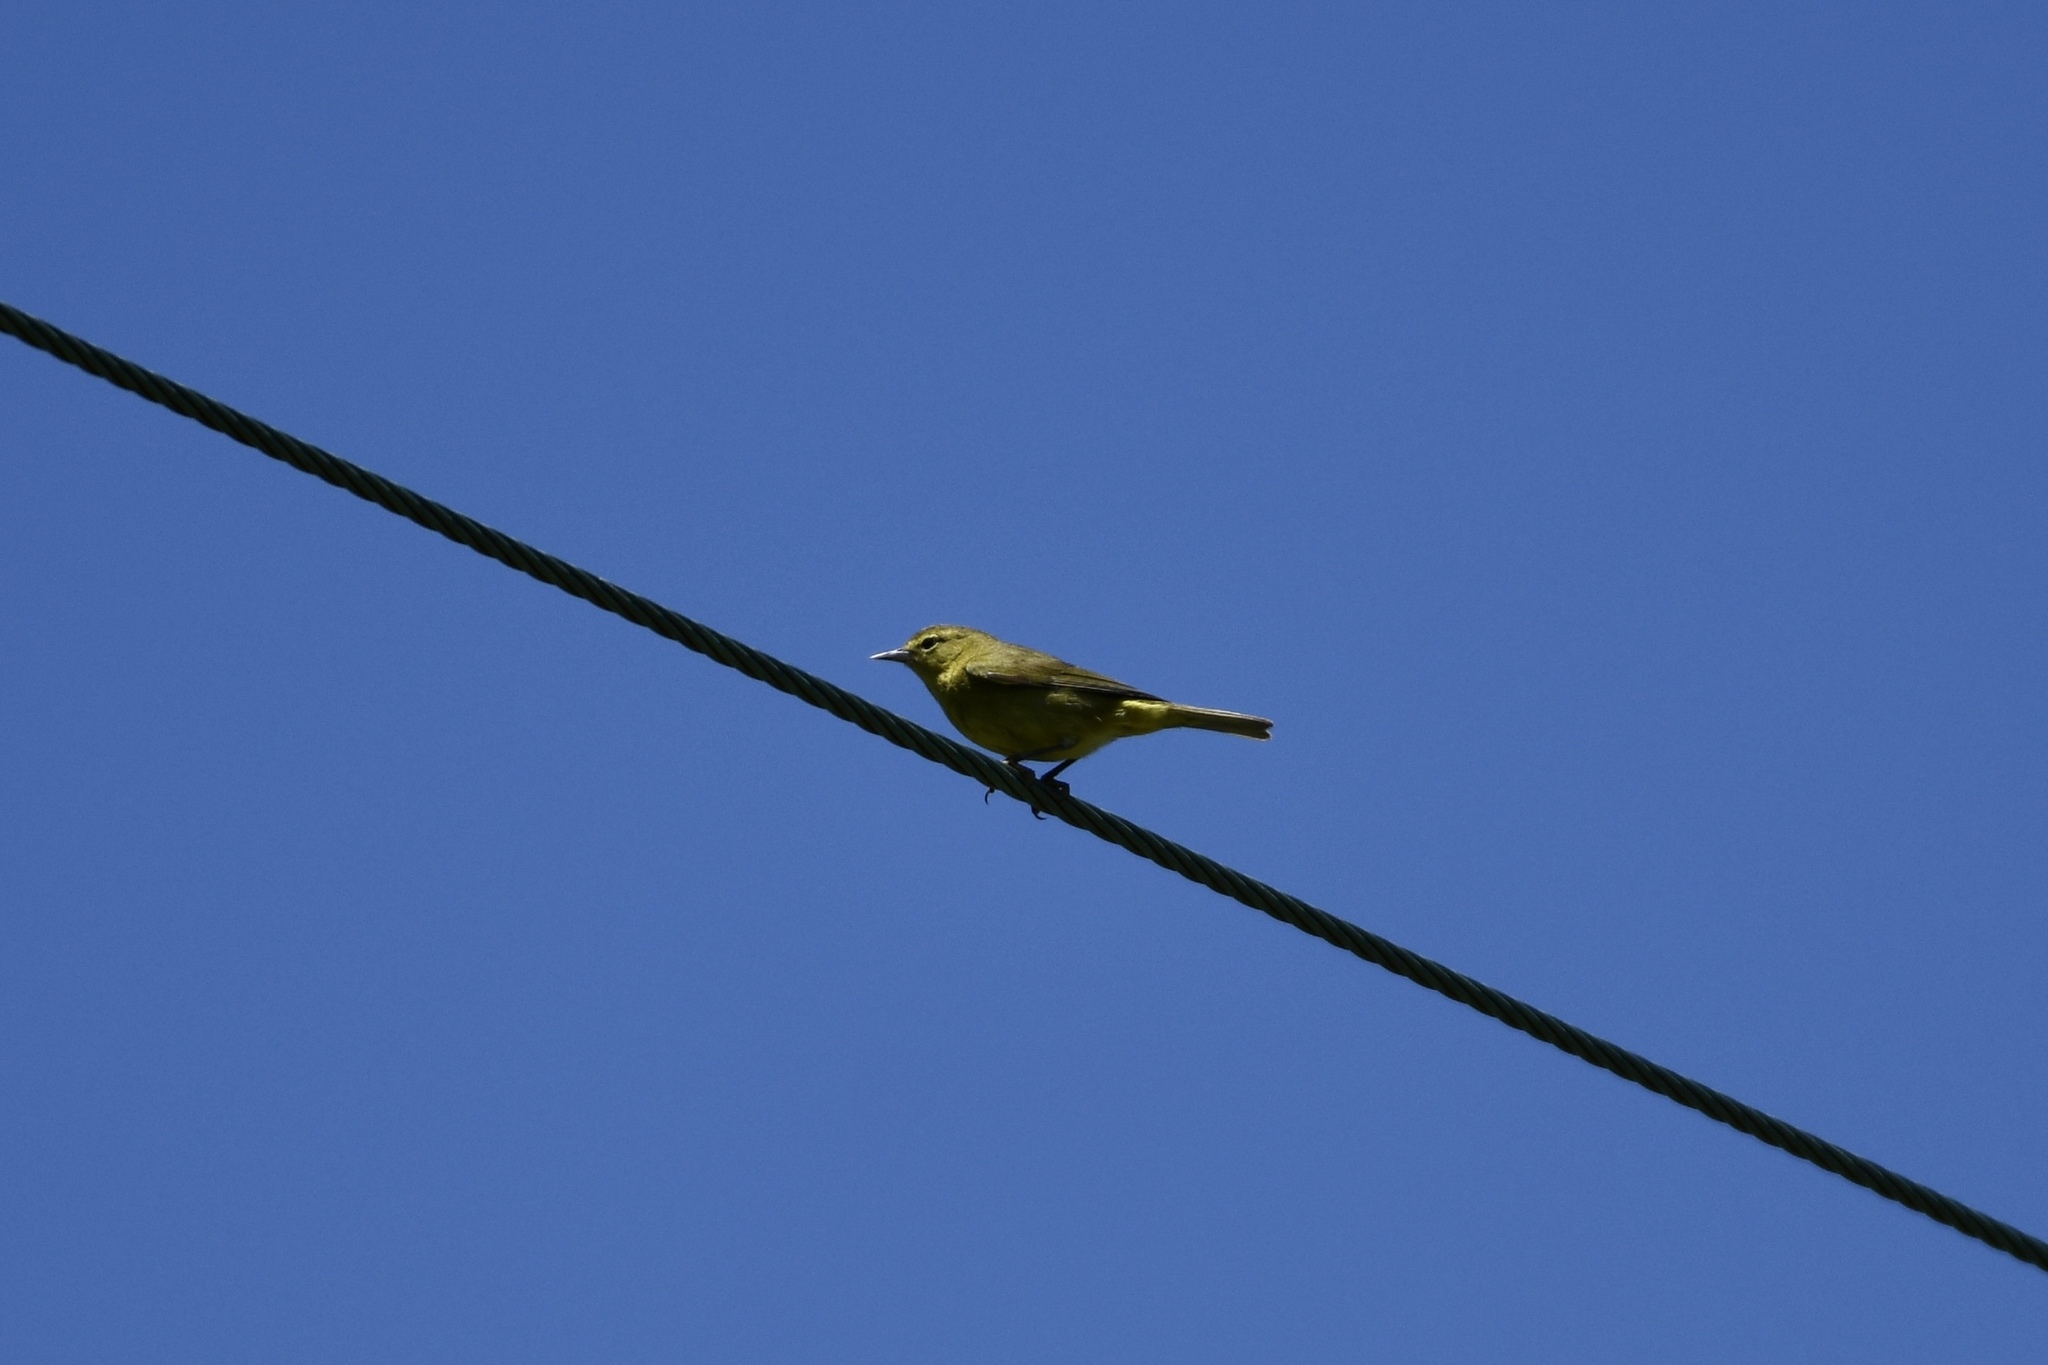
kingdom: Animalia
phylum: Chordata
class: Aves
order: Passeriformes
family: Parulidae
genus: Leiothlypis
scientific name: Leiothlypis celata
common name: Orange-crowned warbler
